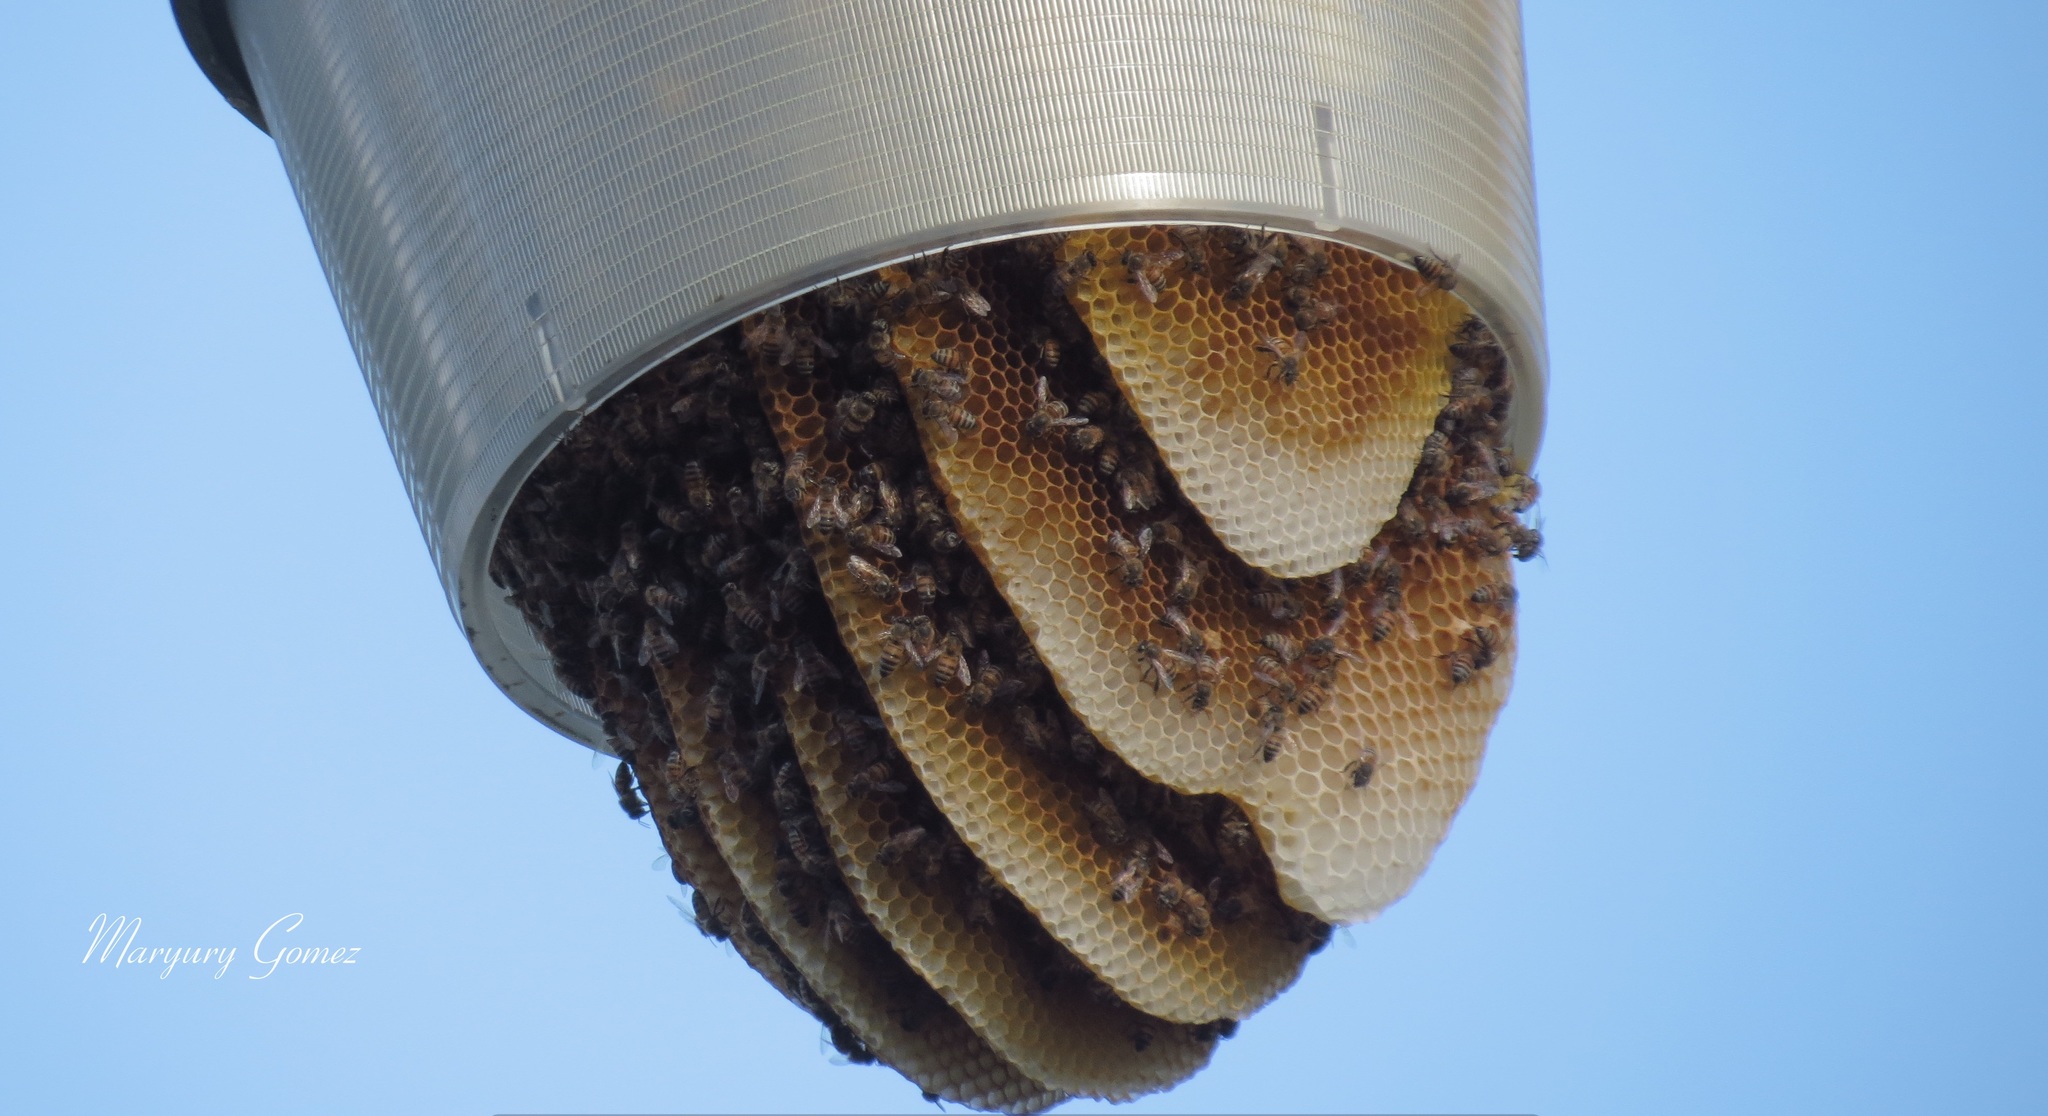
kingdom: Animalia
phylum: Arthropoda
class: Insecta
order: Hymenoptera
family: Apidae
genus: Apis
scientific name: Apis mellifera
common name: Honey bee
